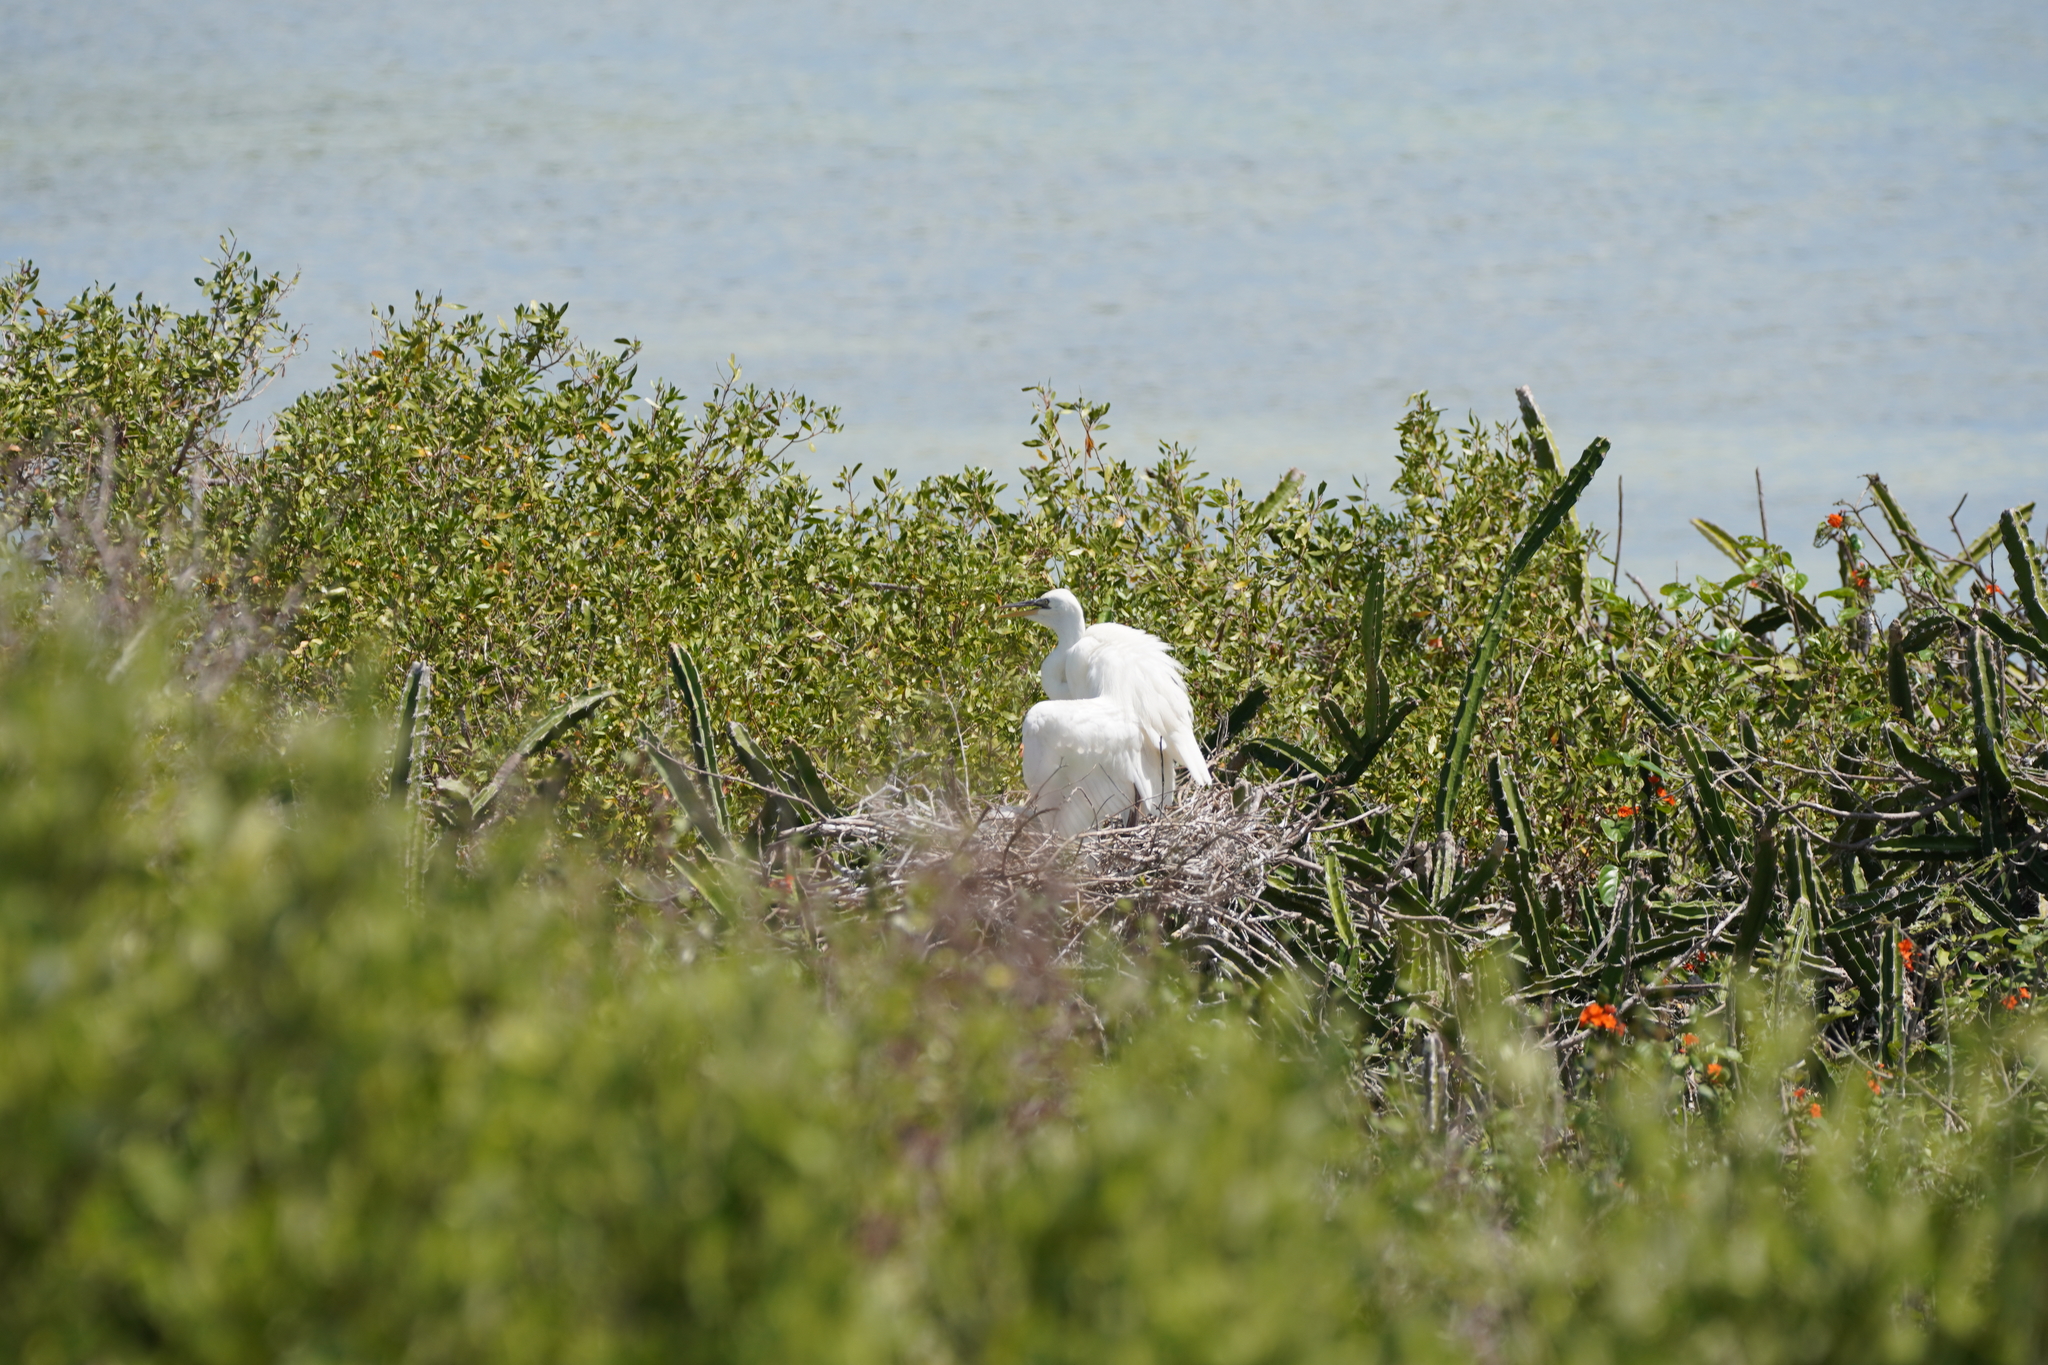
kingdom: Animalia
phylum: Chordata
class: Aves
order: Pelecaniformes
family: Ardeidae
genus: Ardea
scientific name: Ardea herodias
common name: Great blue heron
